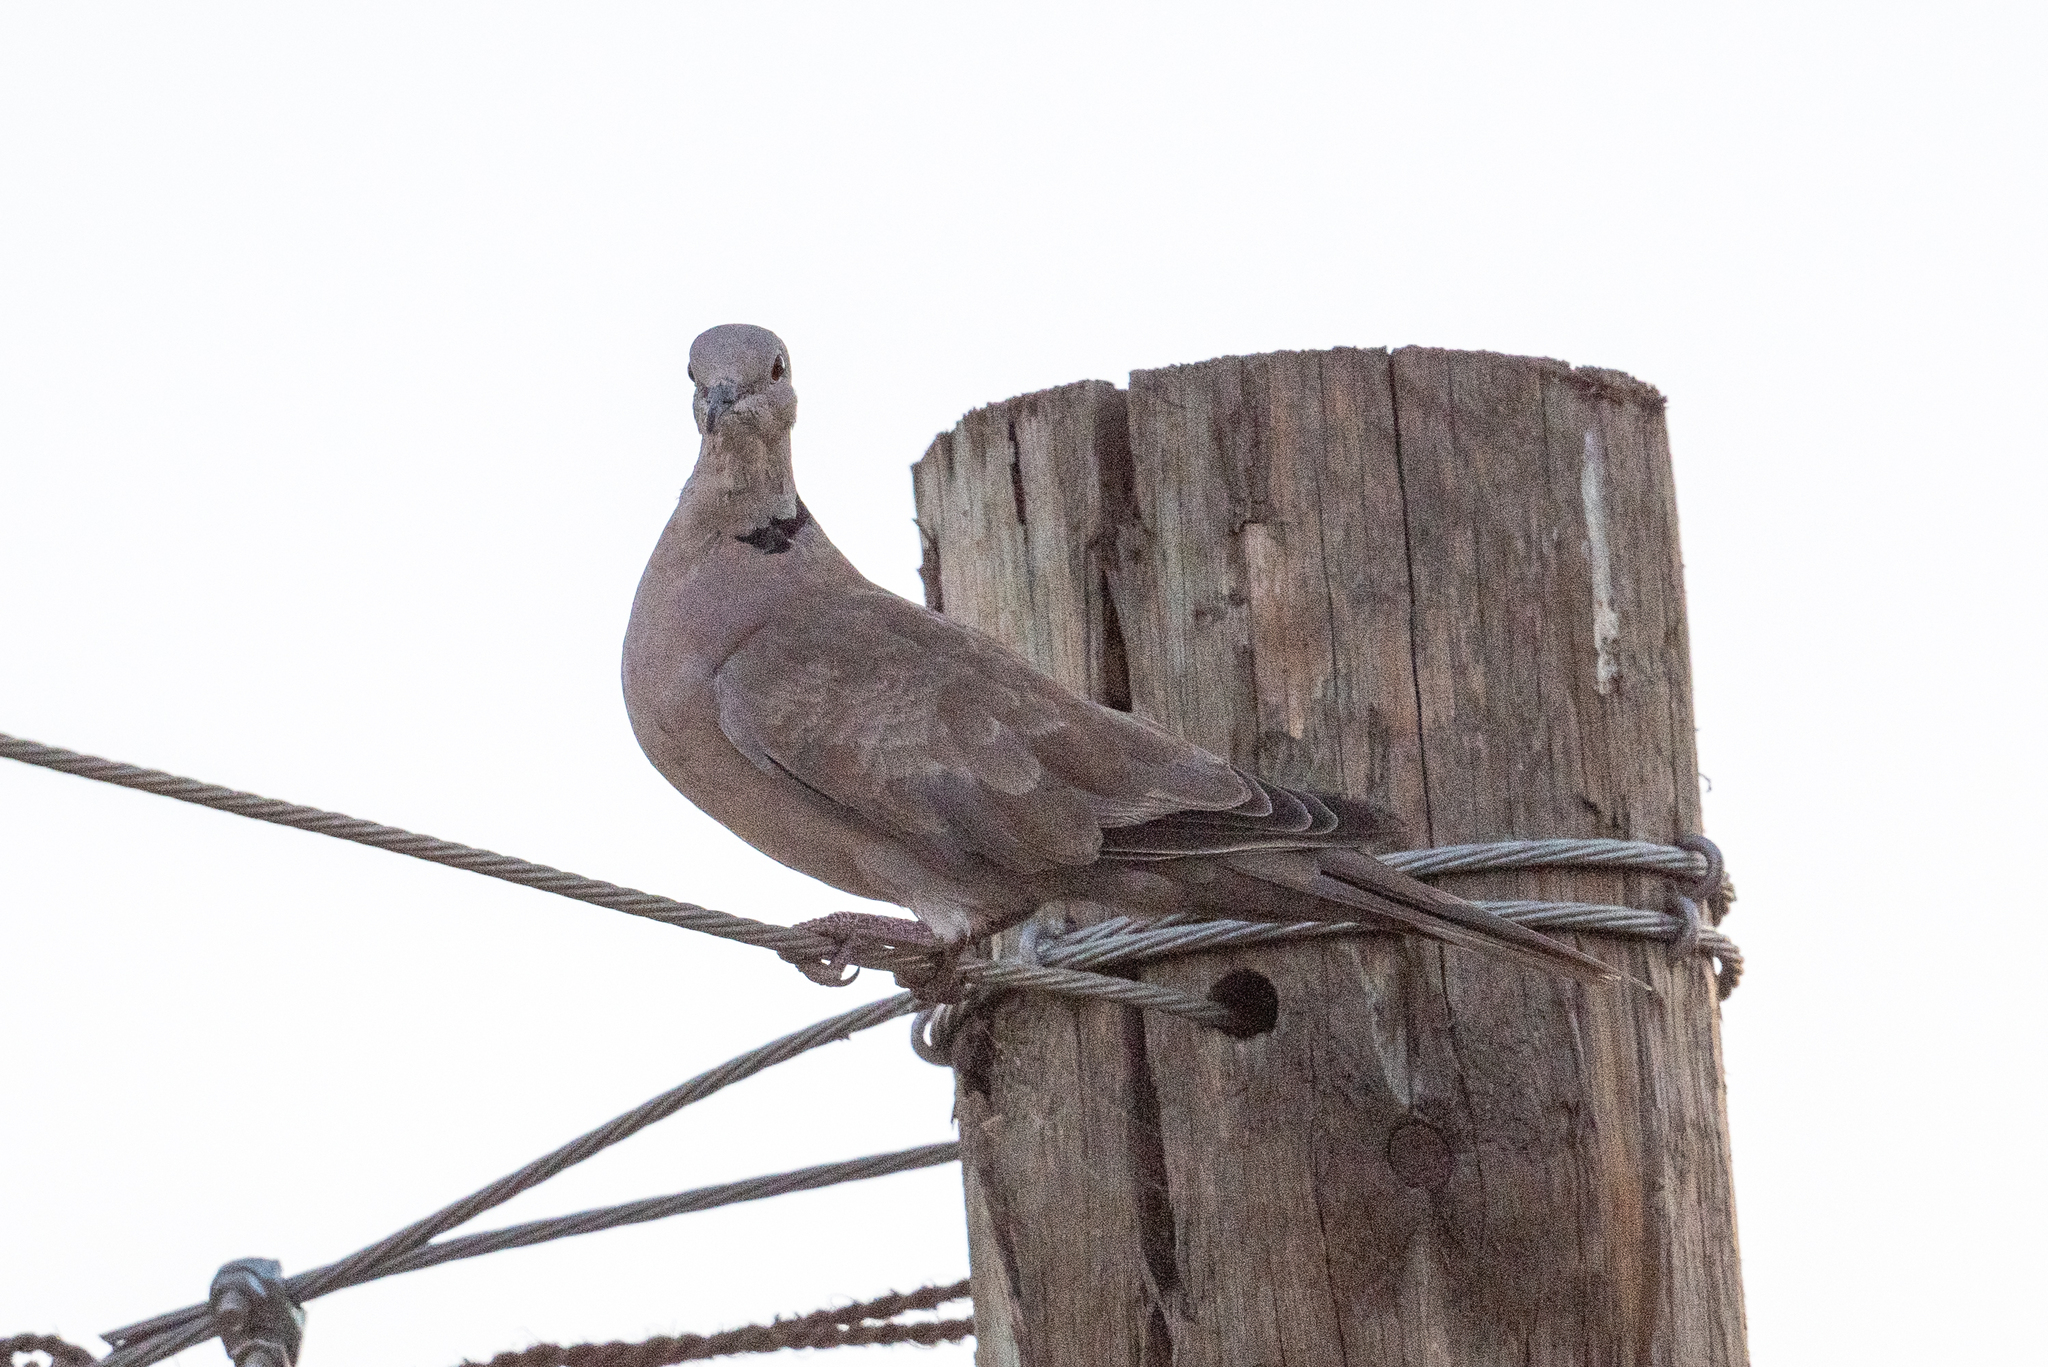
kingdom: Animalia
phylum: Chordata
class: Aves
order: Columbiformes
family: Columbidae
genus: Streptopelia
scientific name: Streptopelia decaocto
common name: Eurasian collared dove
